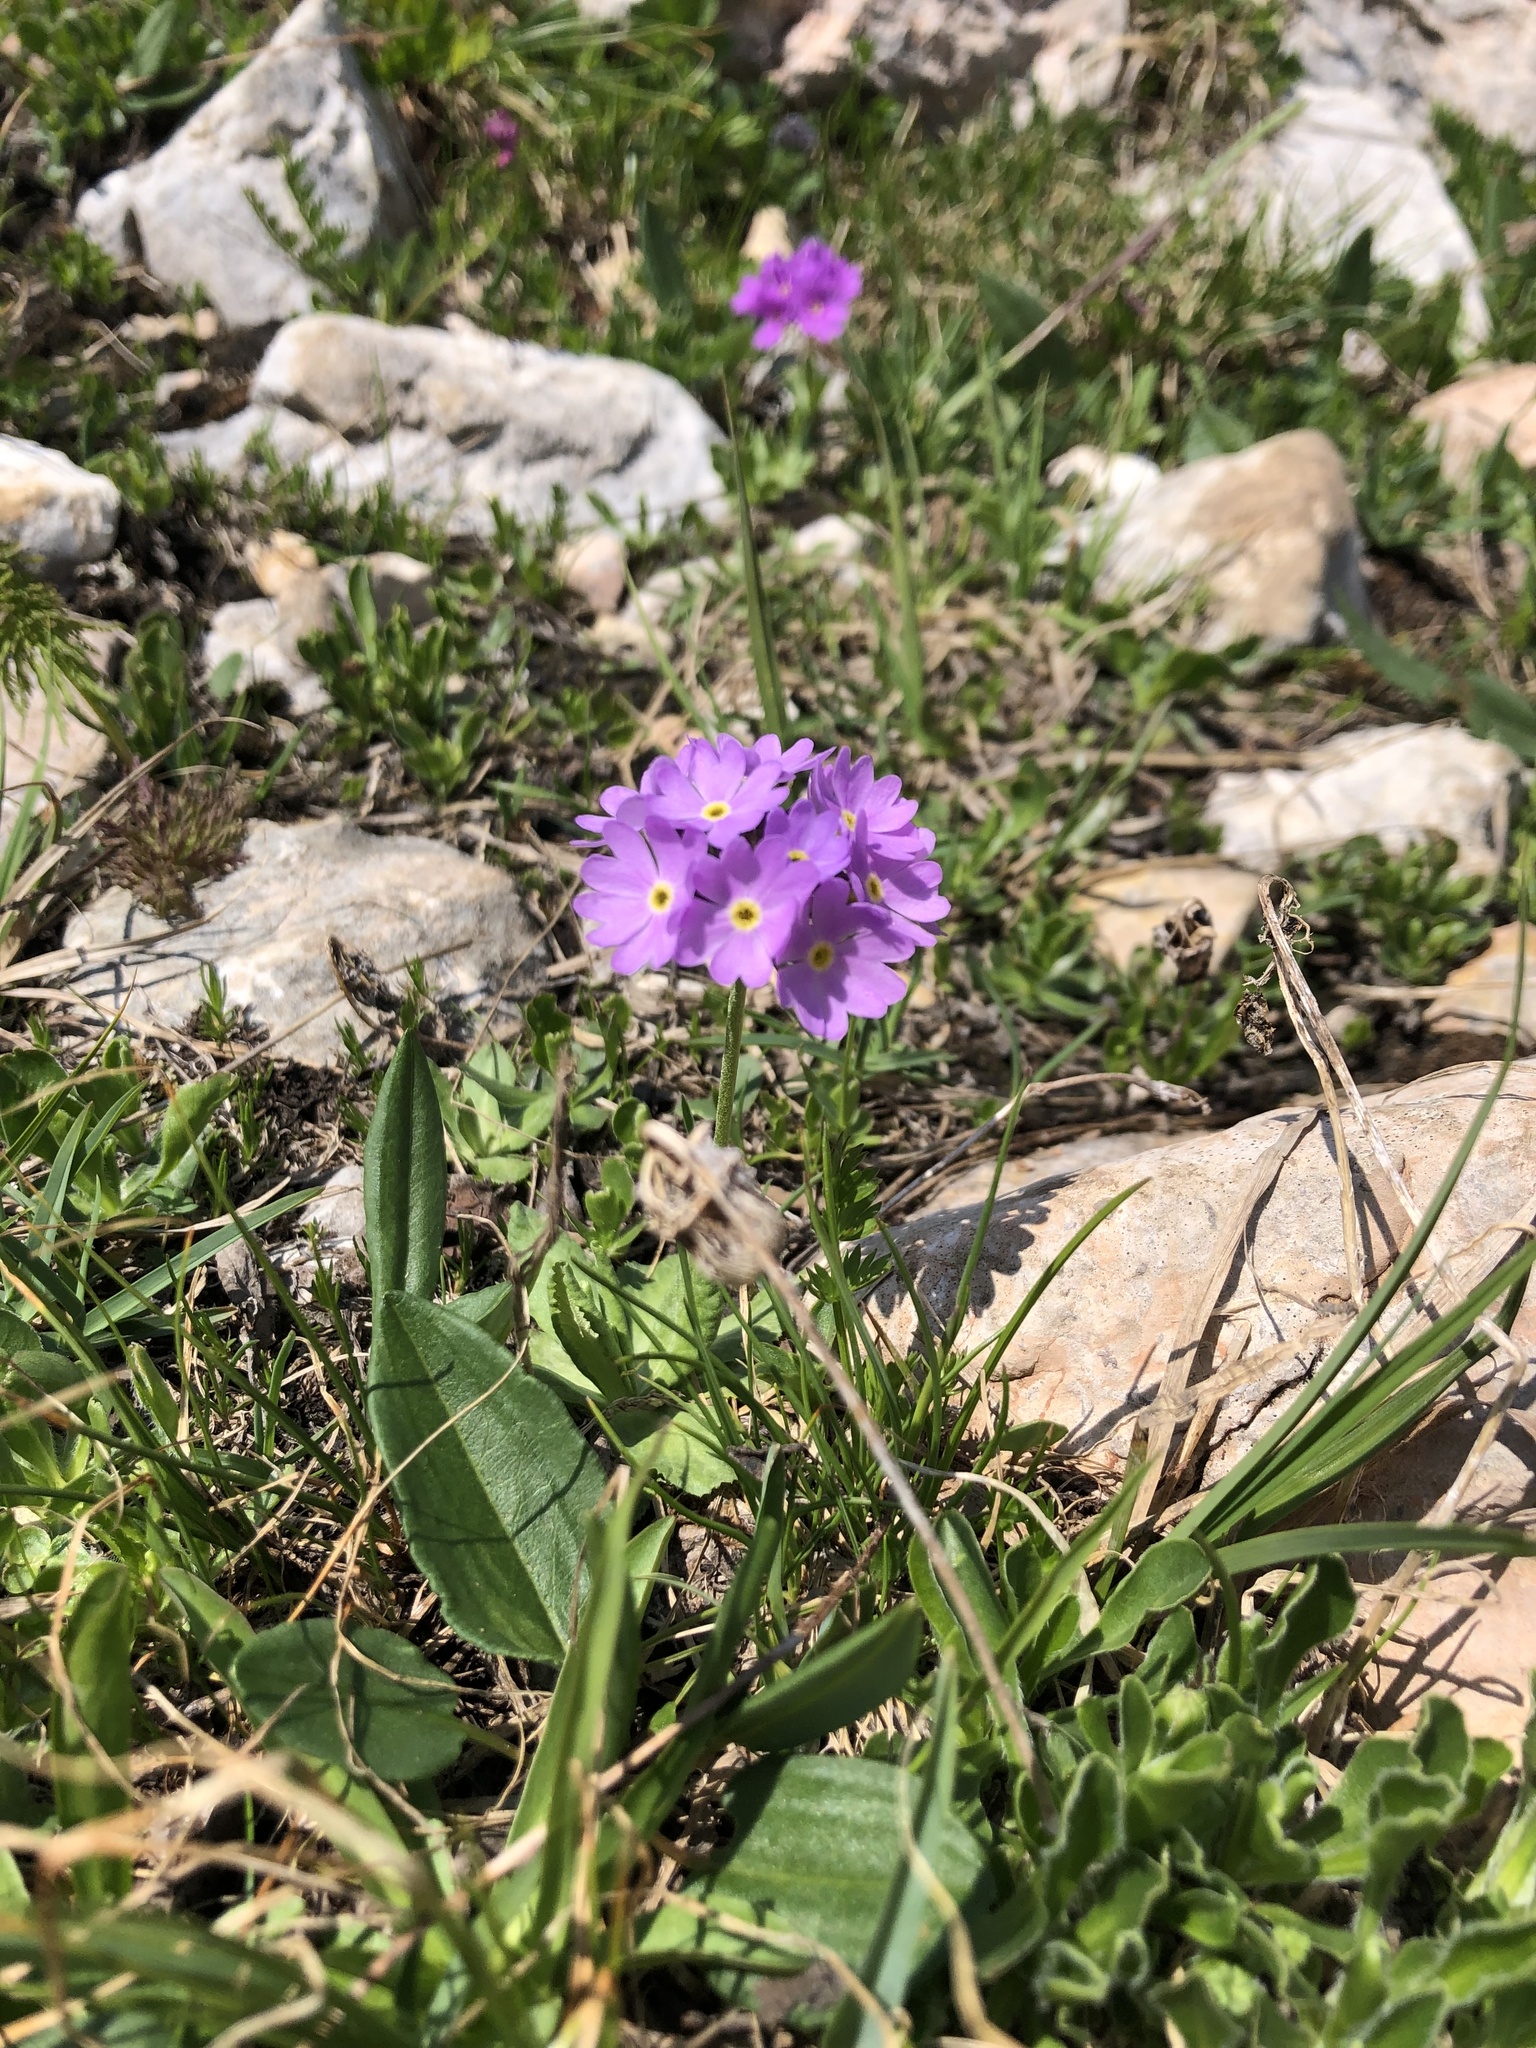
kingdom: Plantae
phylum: Tracheophyta
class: Magnoliopsida
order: Ericales
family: Primulaceae
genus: Primula
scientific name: Primula algida
